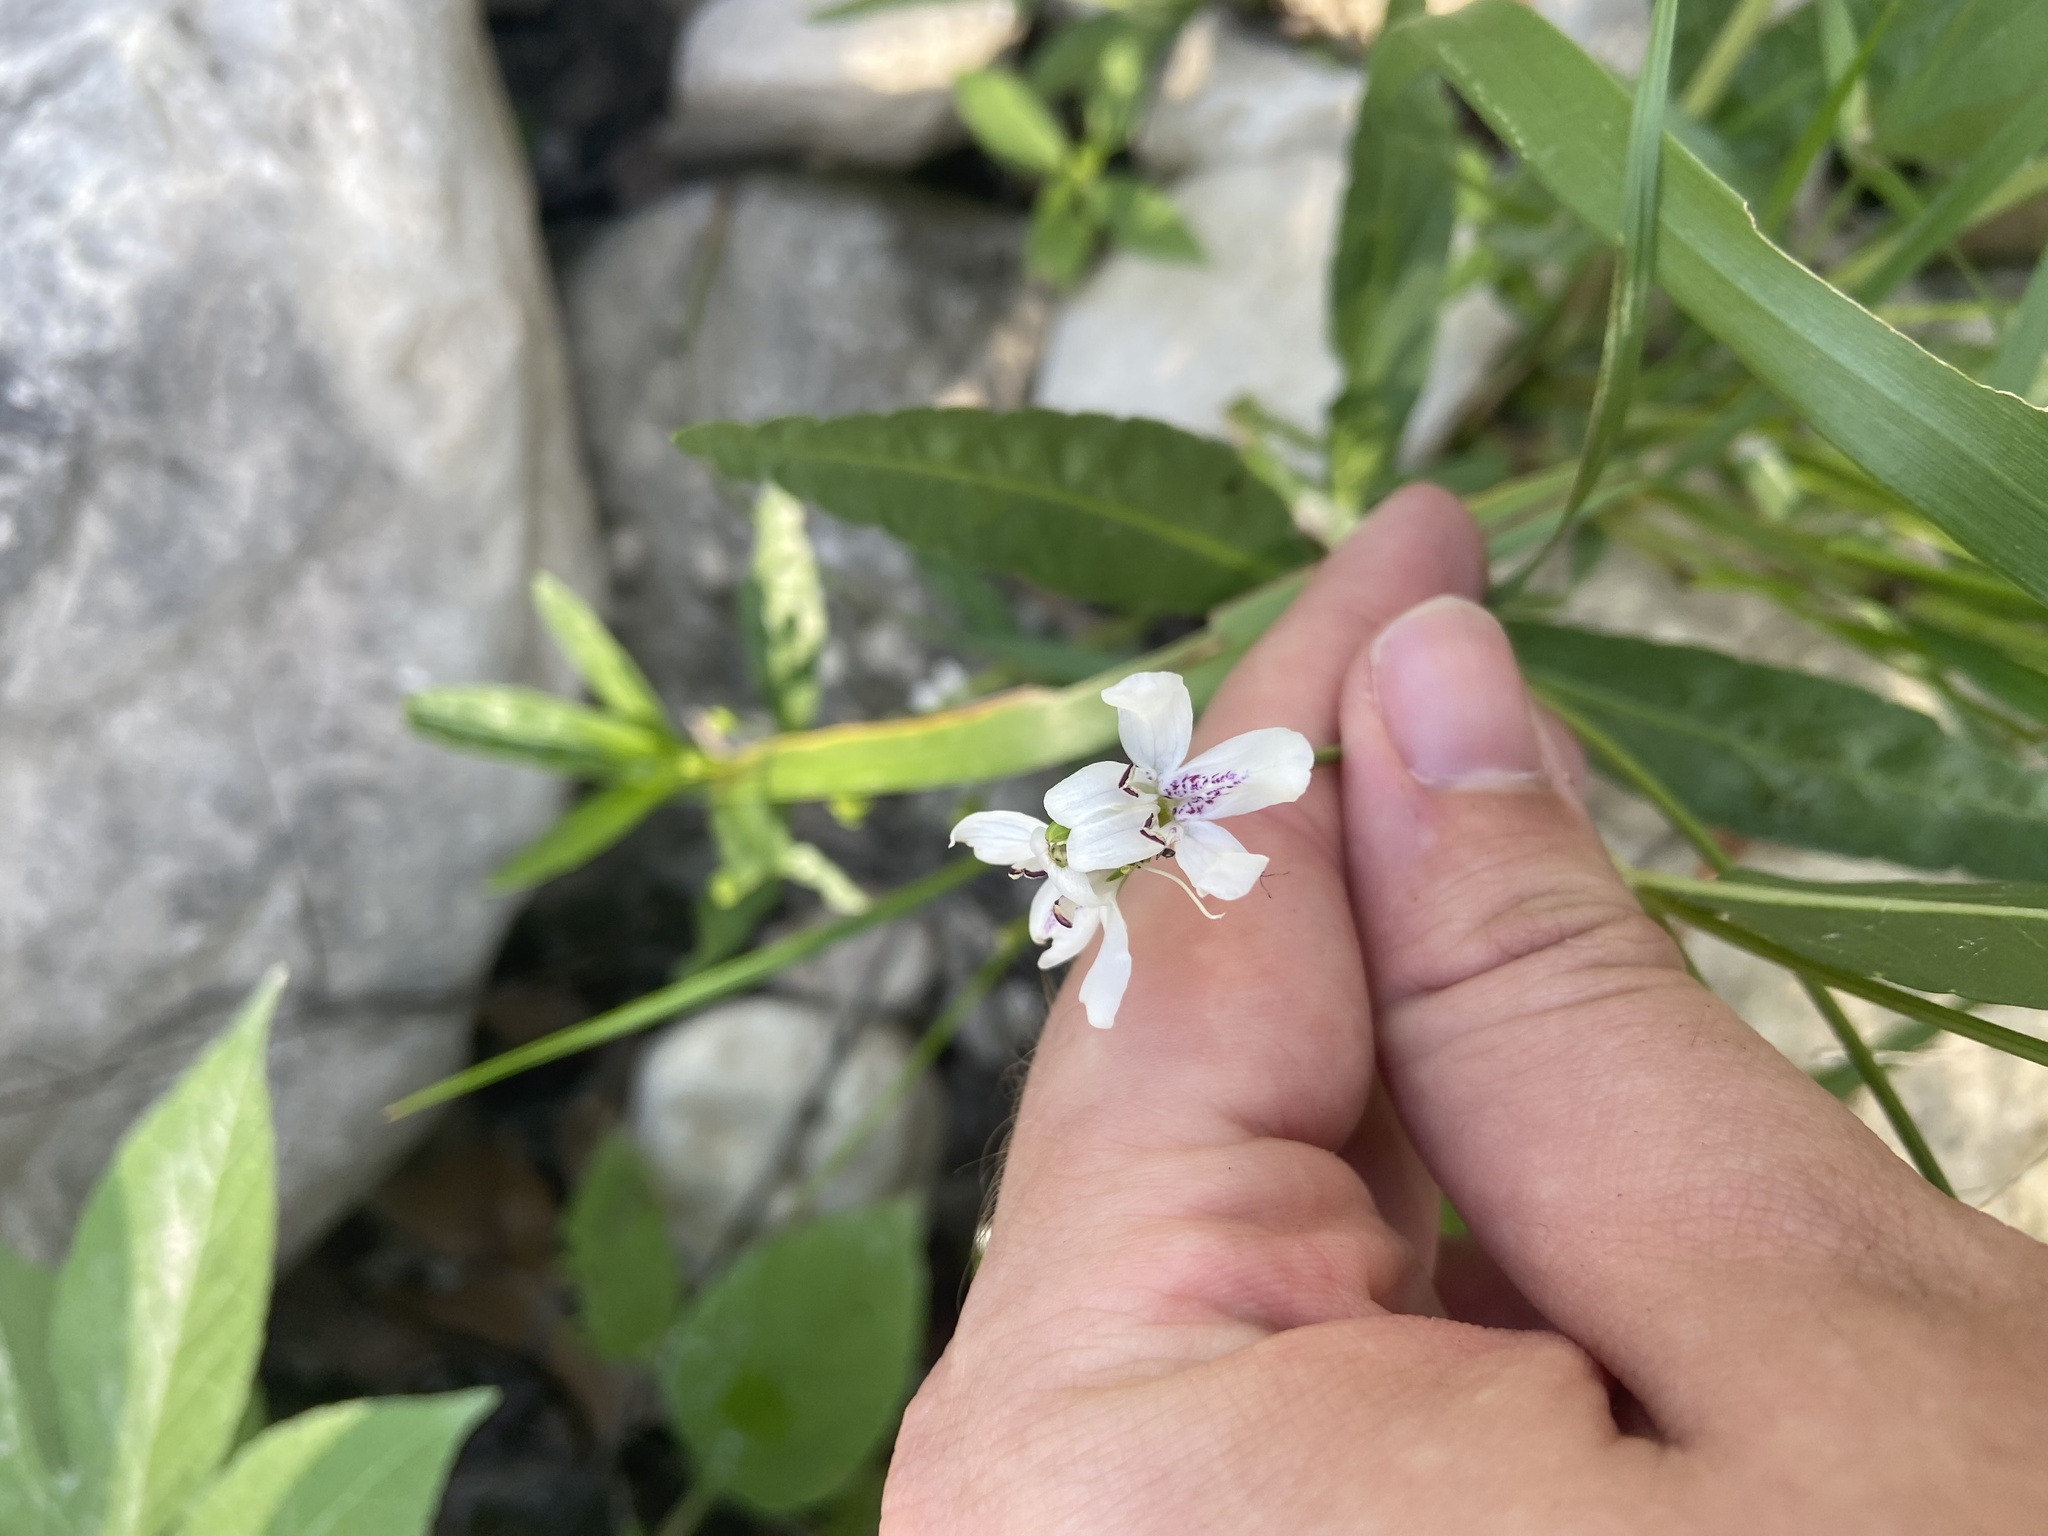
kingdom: Plantae
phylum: Tracheophyta
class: Magnoliopsida
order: Lamiales
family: Acanthaceae
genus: Dianthera
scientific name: Dianthera americana
